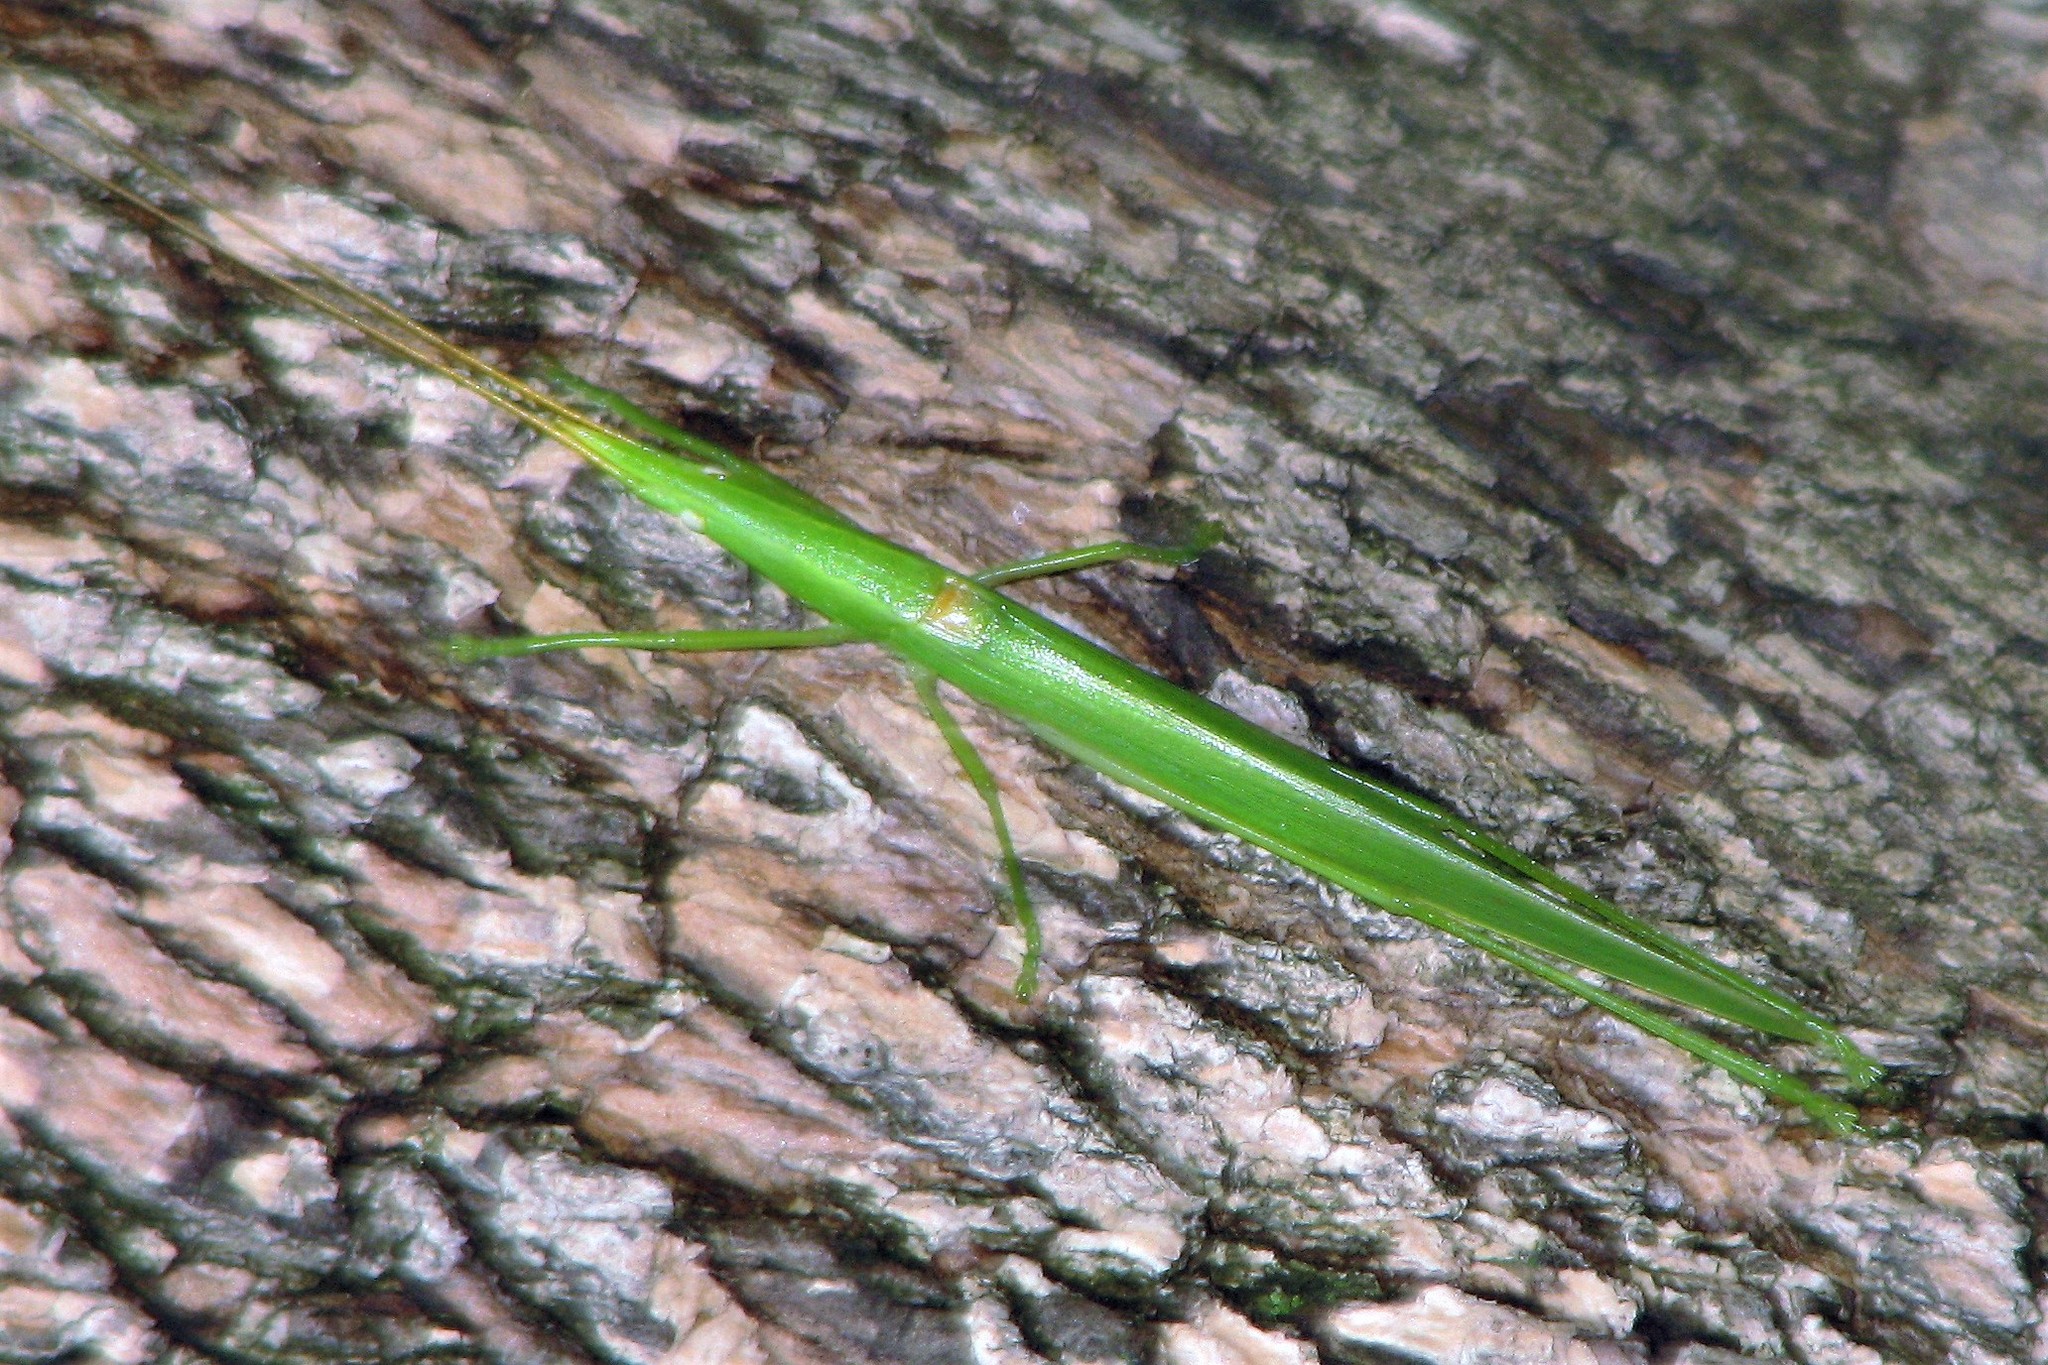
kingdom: Animalia
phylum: Arthropoda
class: Insecta
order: Orthoptera
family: Tettigoniidae
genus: Caulopsis
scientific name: Caulopsis gracilis
